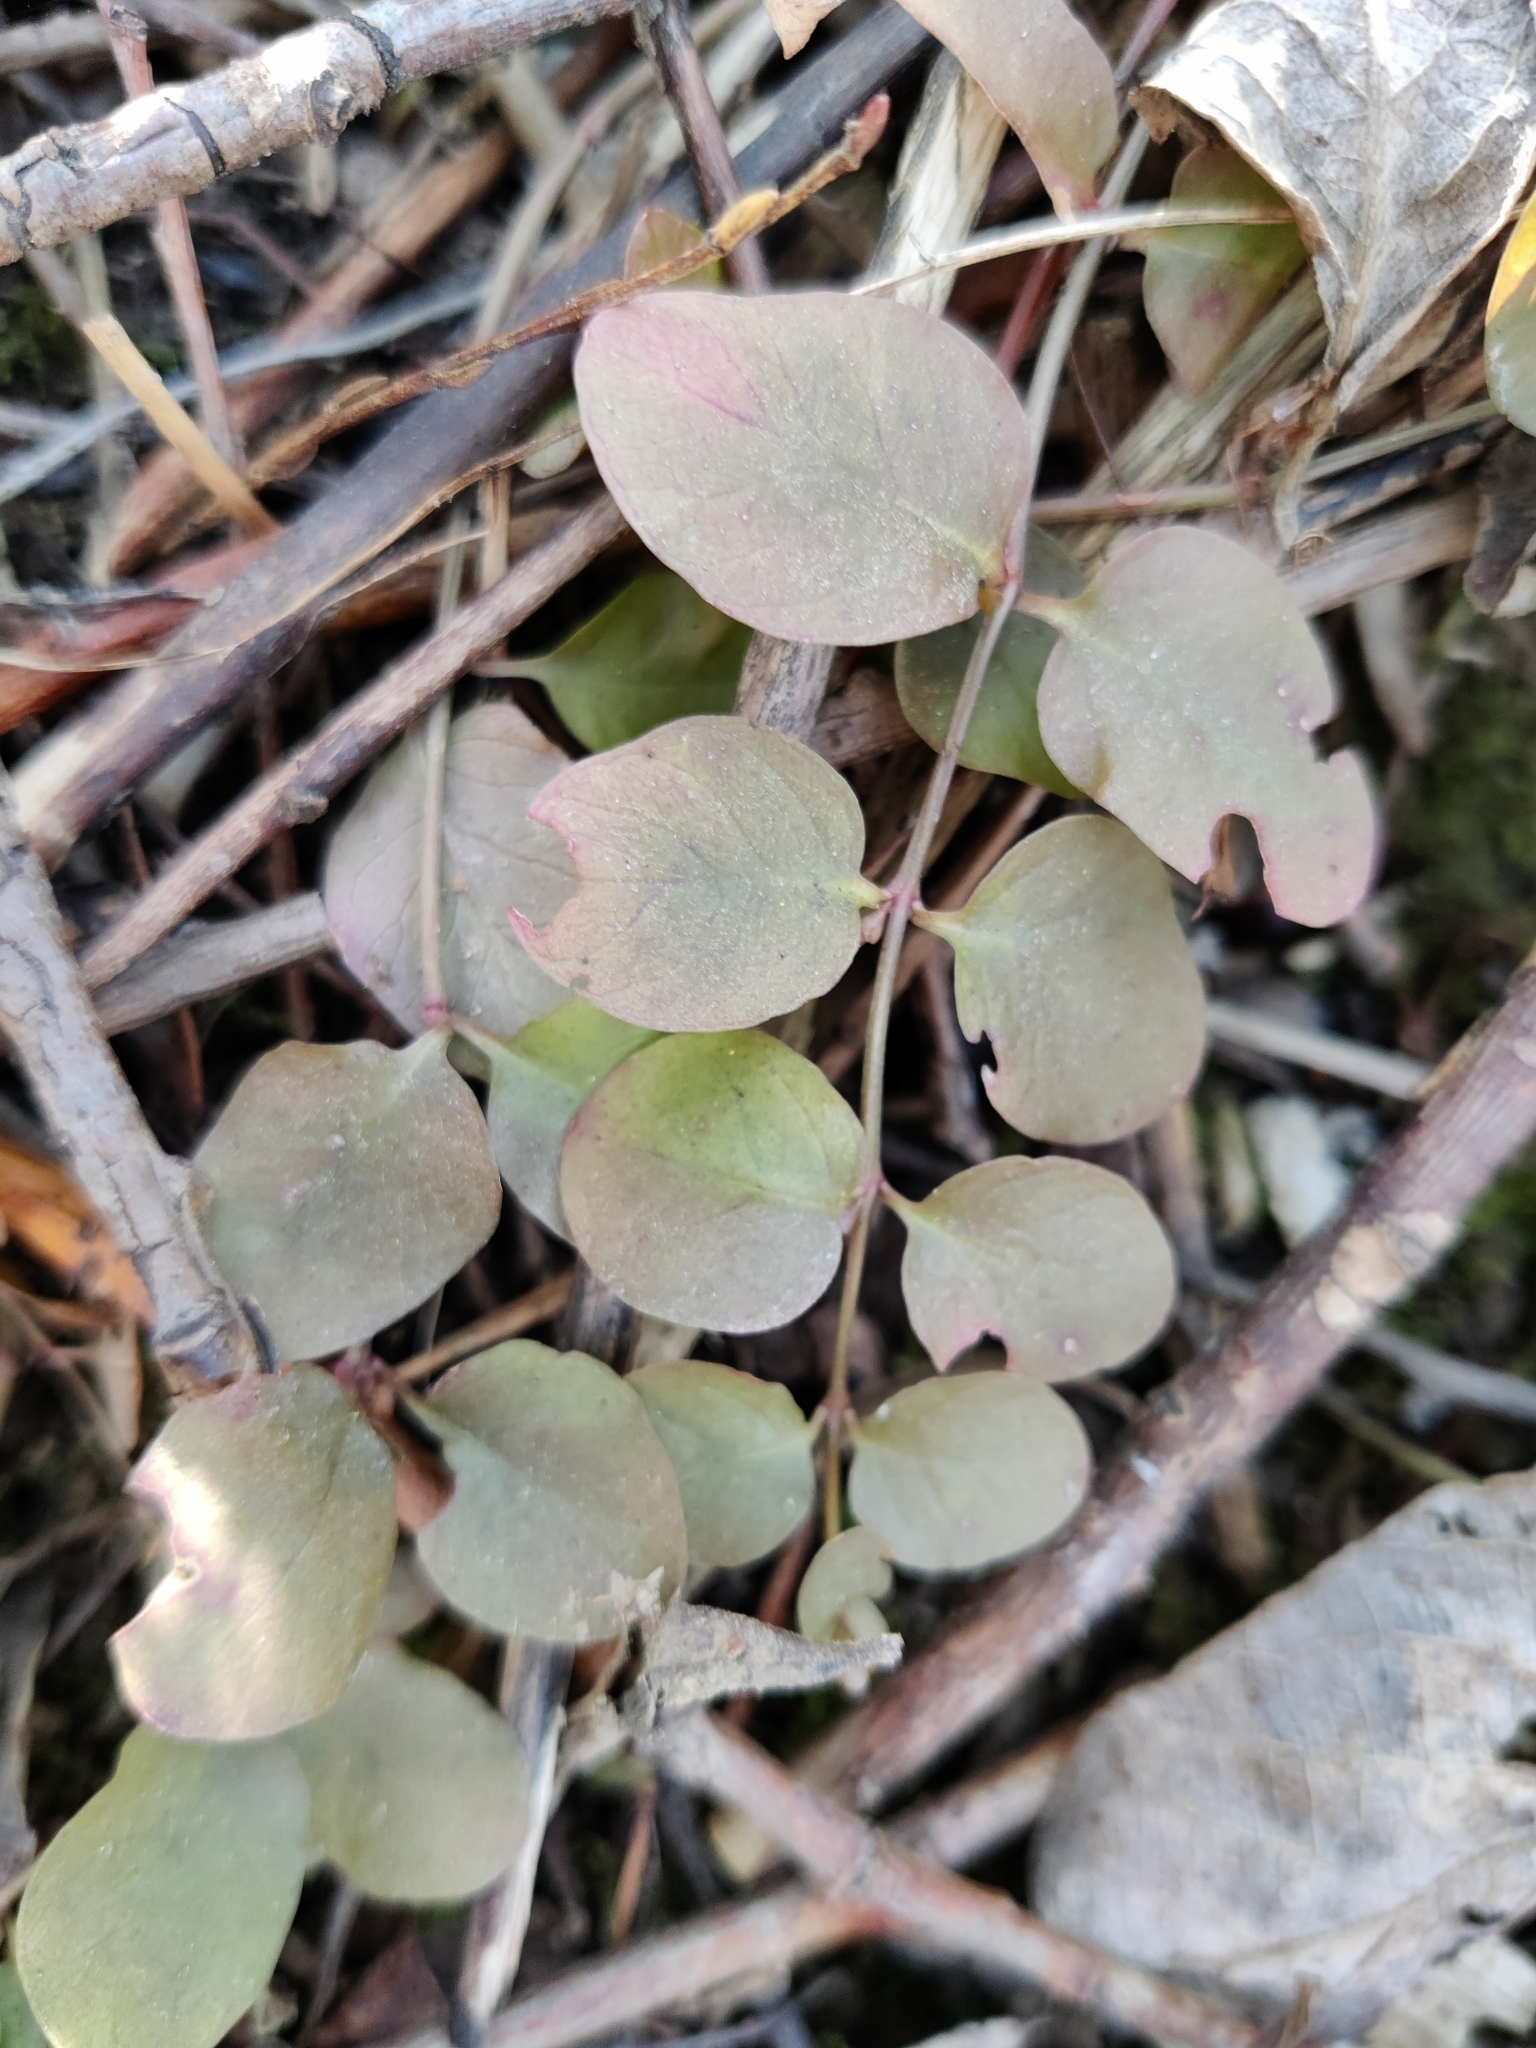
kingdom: Plantae
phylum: Tracheophyta
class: Magnoliopsida
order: Ericales
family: Primulaceae
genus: Lysimachia
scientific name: Lysimachia nummularia
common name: Moneywort
